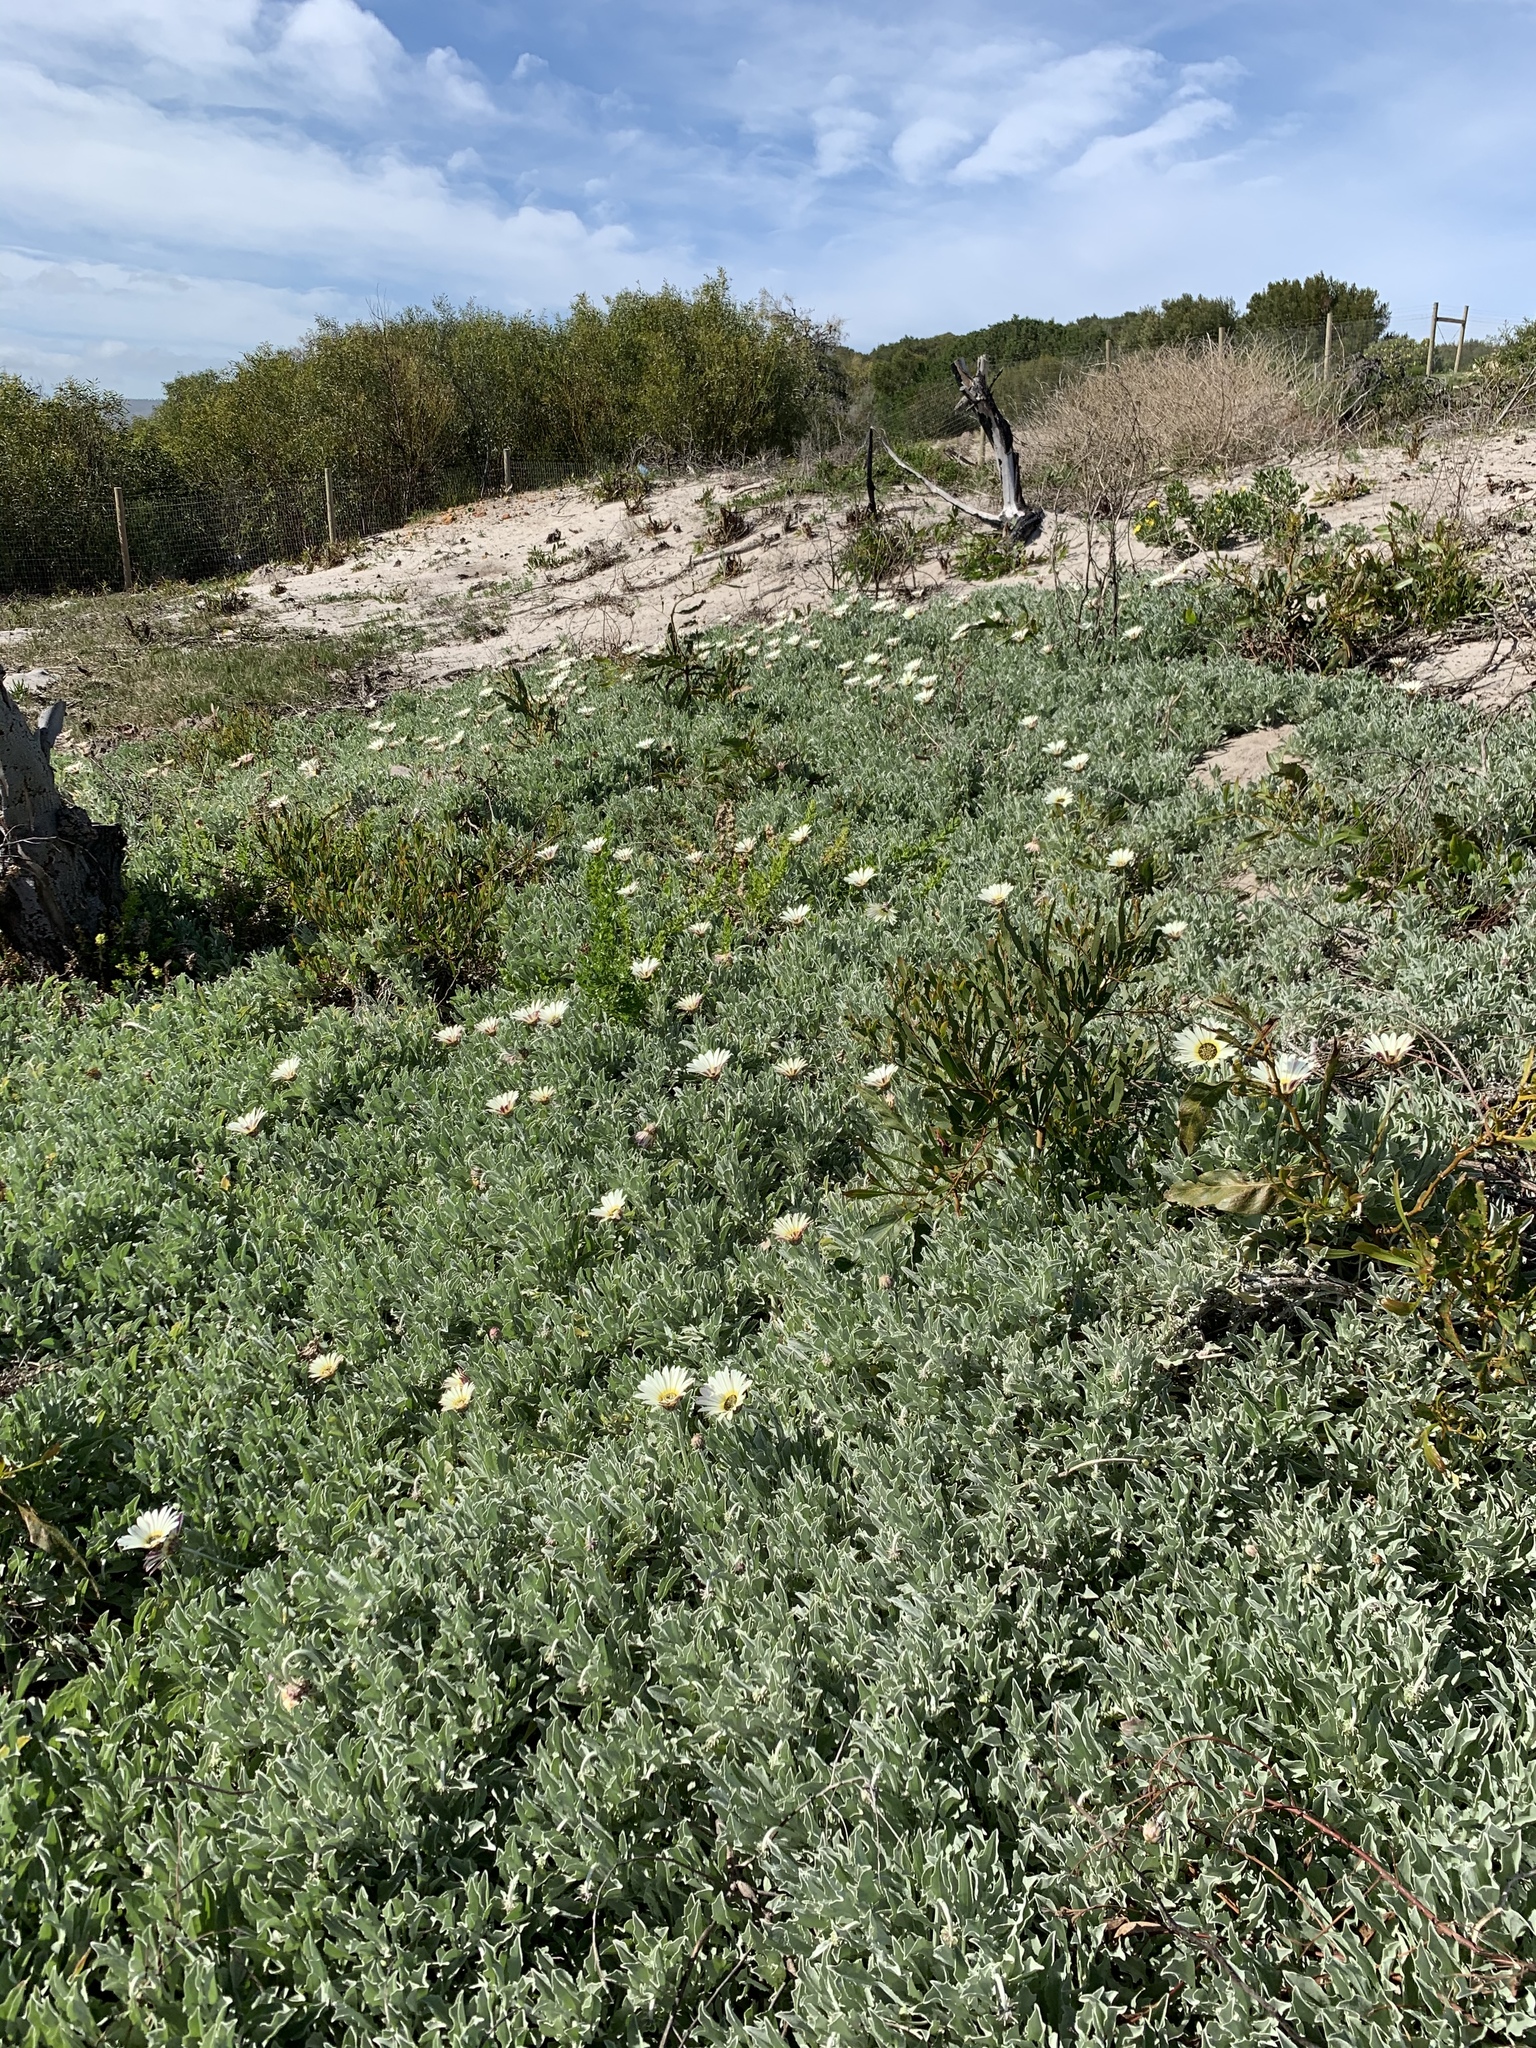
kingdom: Plantae
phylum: Tracheophyta
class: Magnoliopsida
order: Asterales
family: Asteraceae
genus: Arctotis
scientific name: Arctotis stoechadifolia
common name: African daisy
